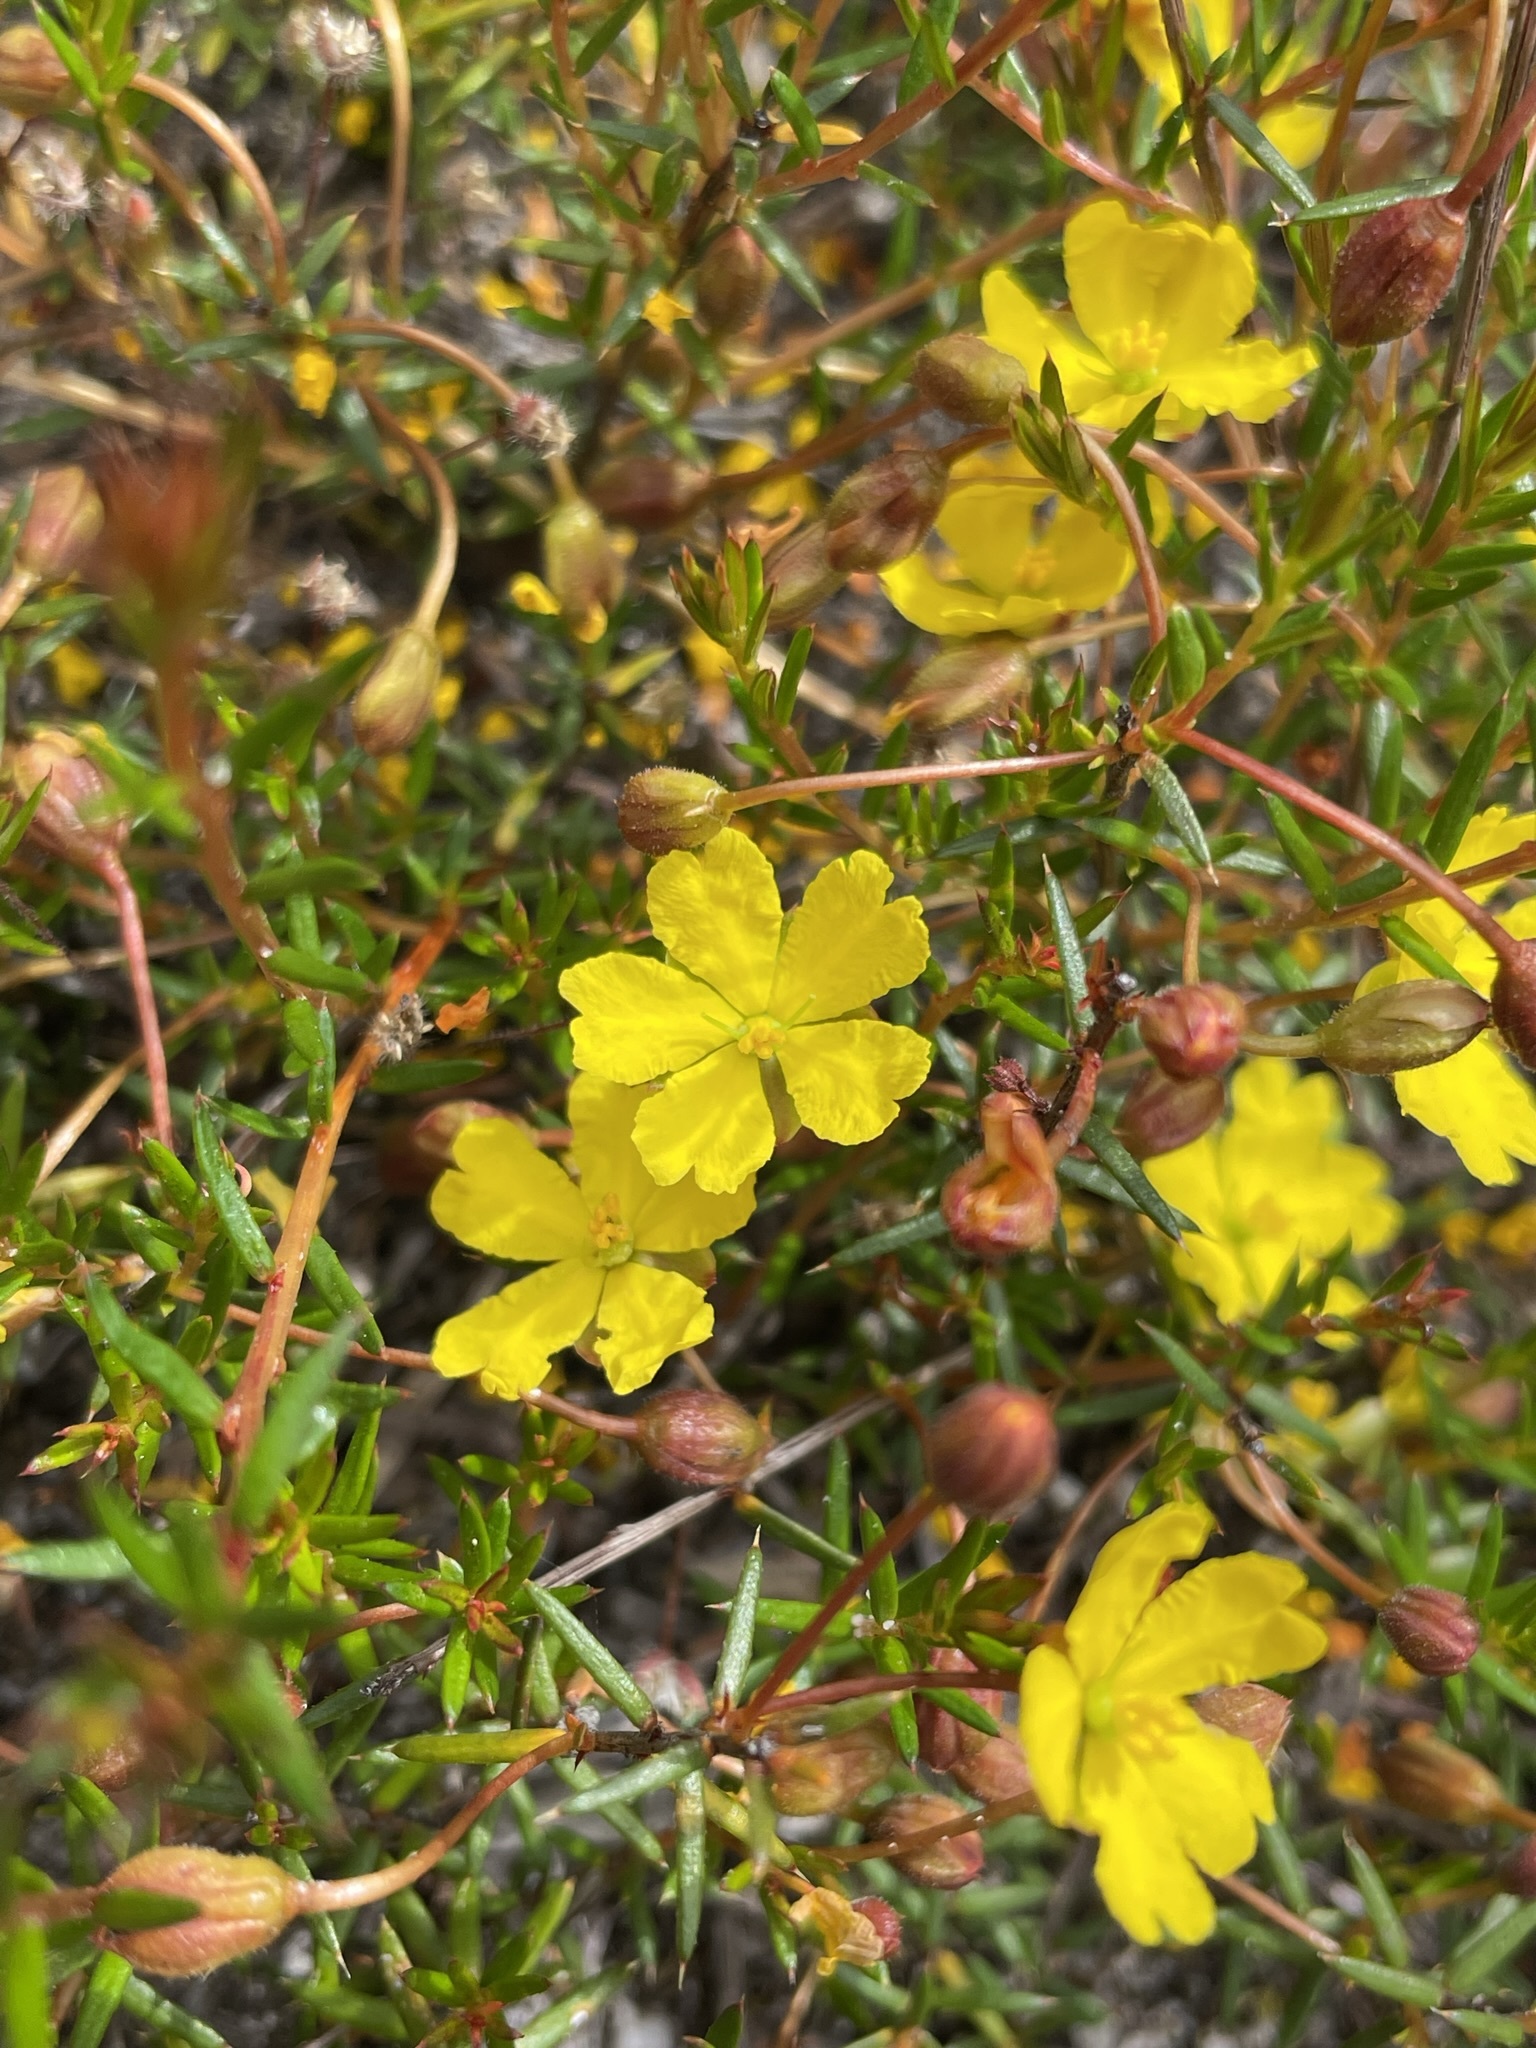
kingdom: Plantae
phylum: Tracheophyta
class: Magnoliopsida
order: Dilleniales
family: Dilleniaceae
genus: Hibbertia
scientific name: Hibbertia acicularis
